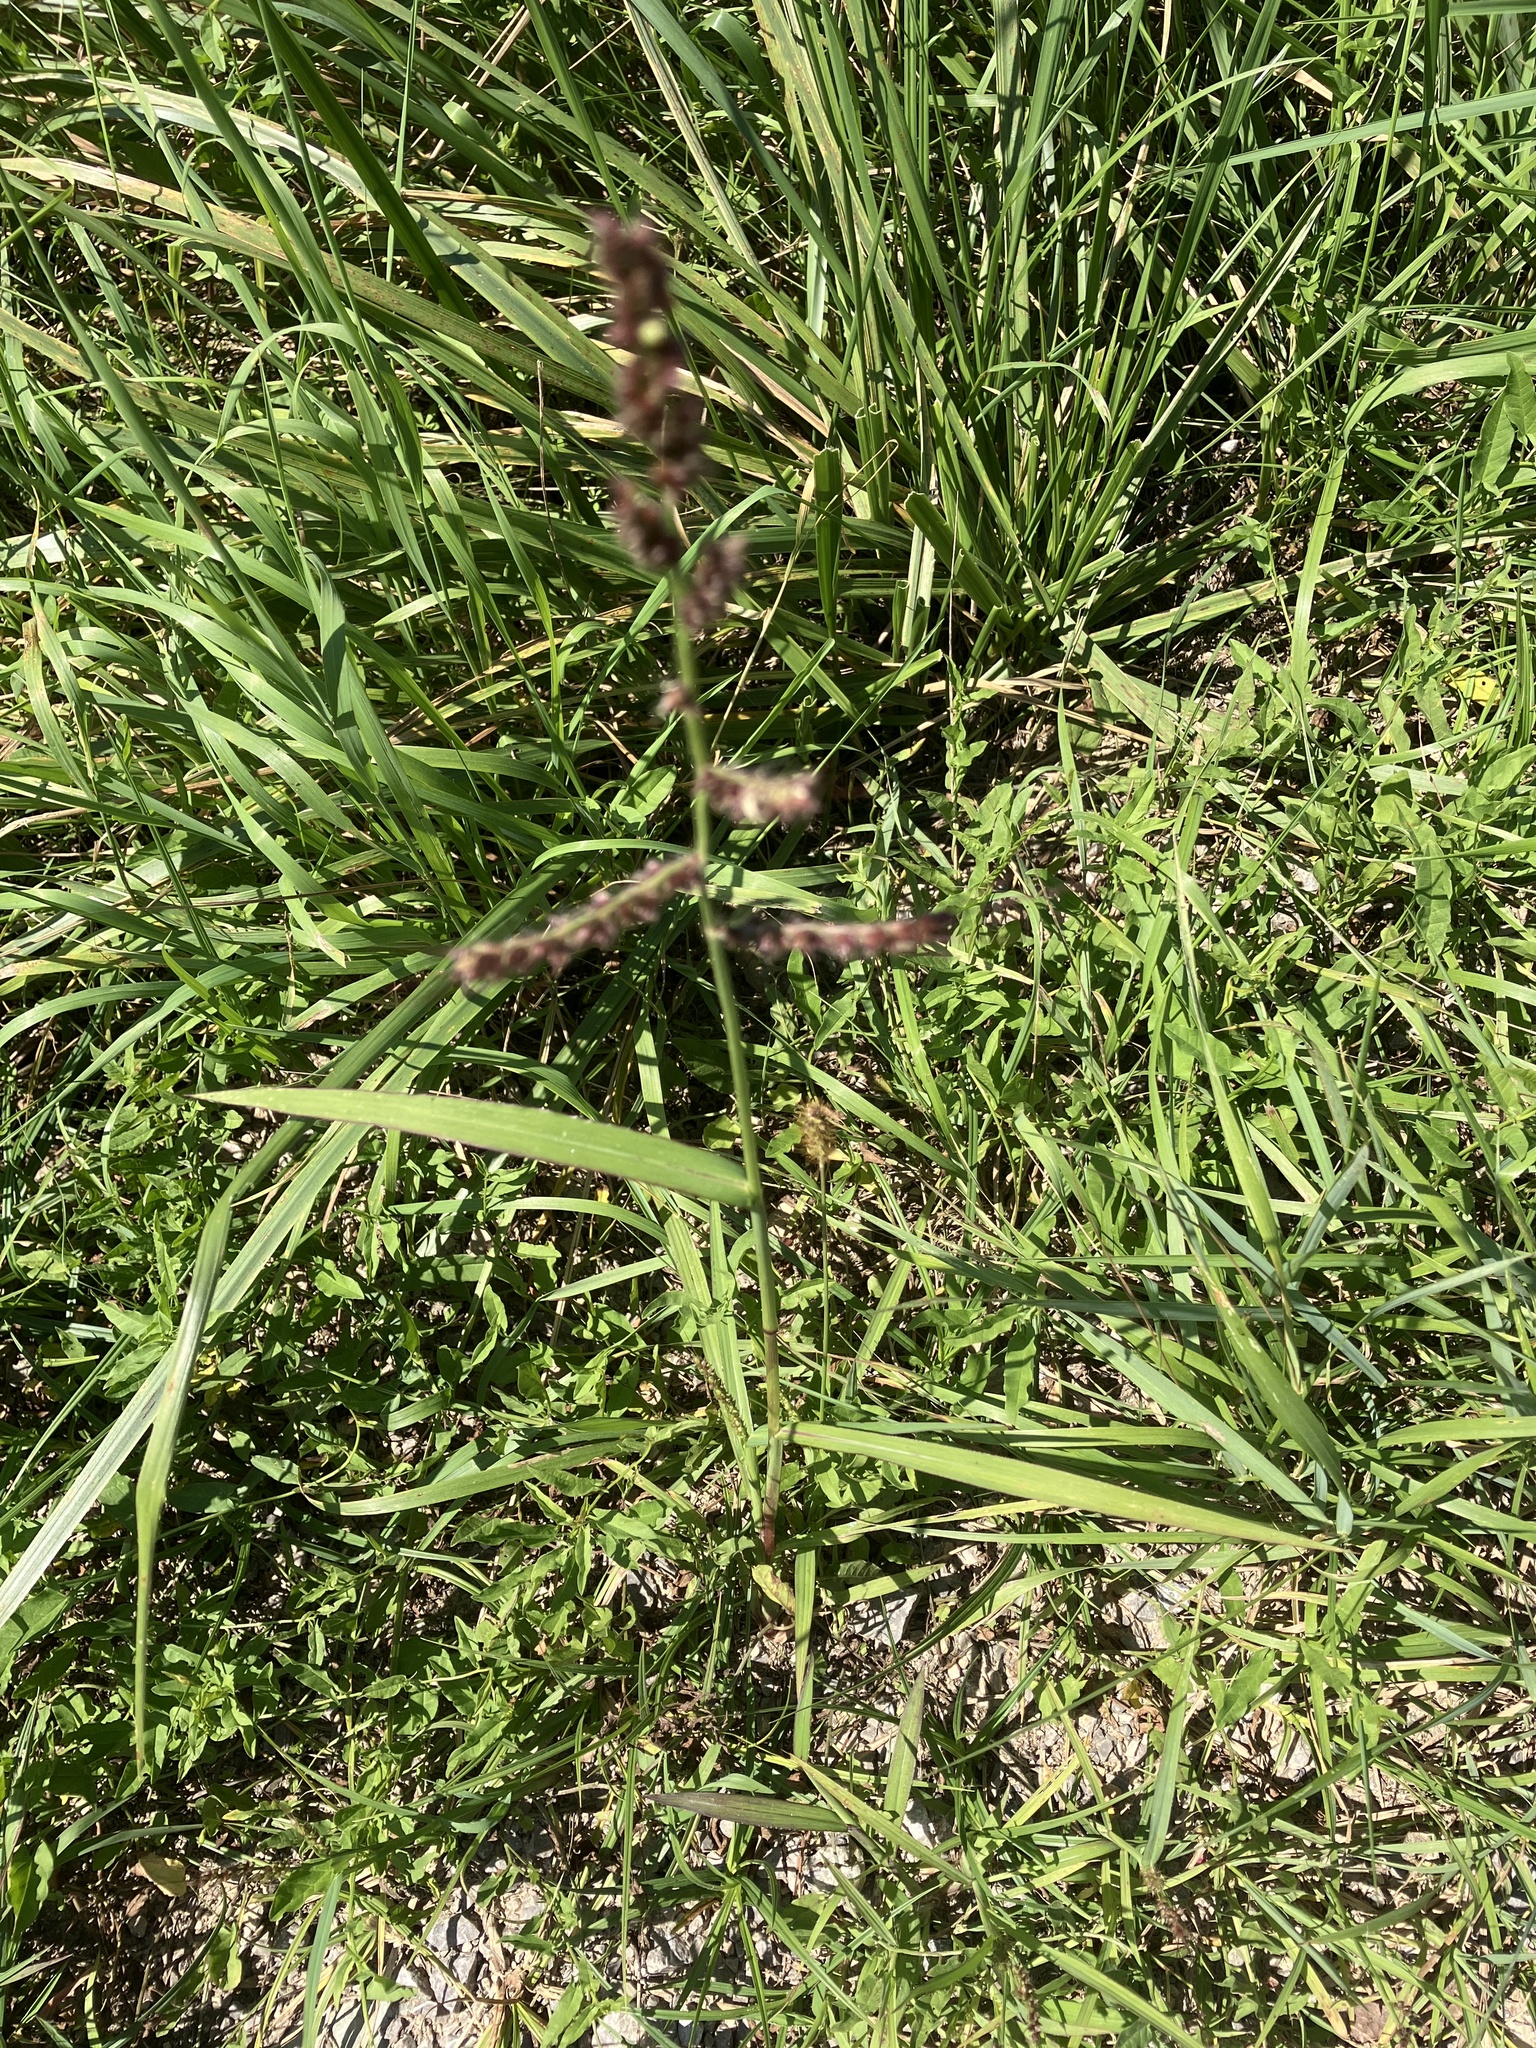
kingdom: Plantae
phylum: Tracheophyta
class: Liliopsida
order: Poales
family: Poaceae
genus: Echinochloa
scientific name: Echinochloa crus-galli
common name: Cockspur
